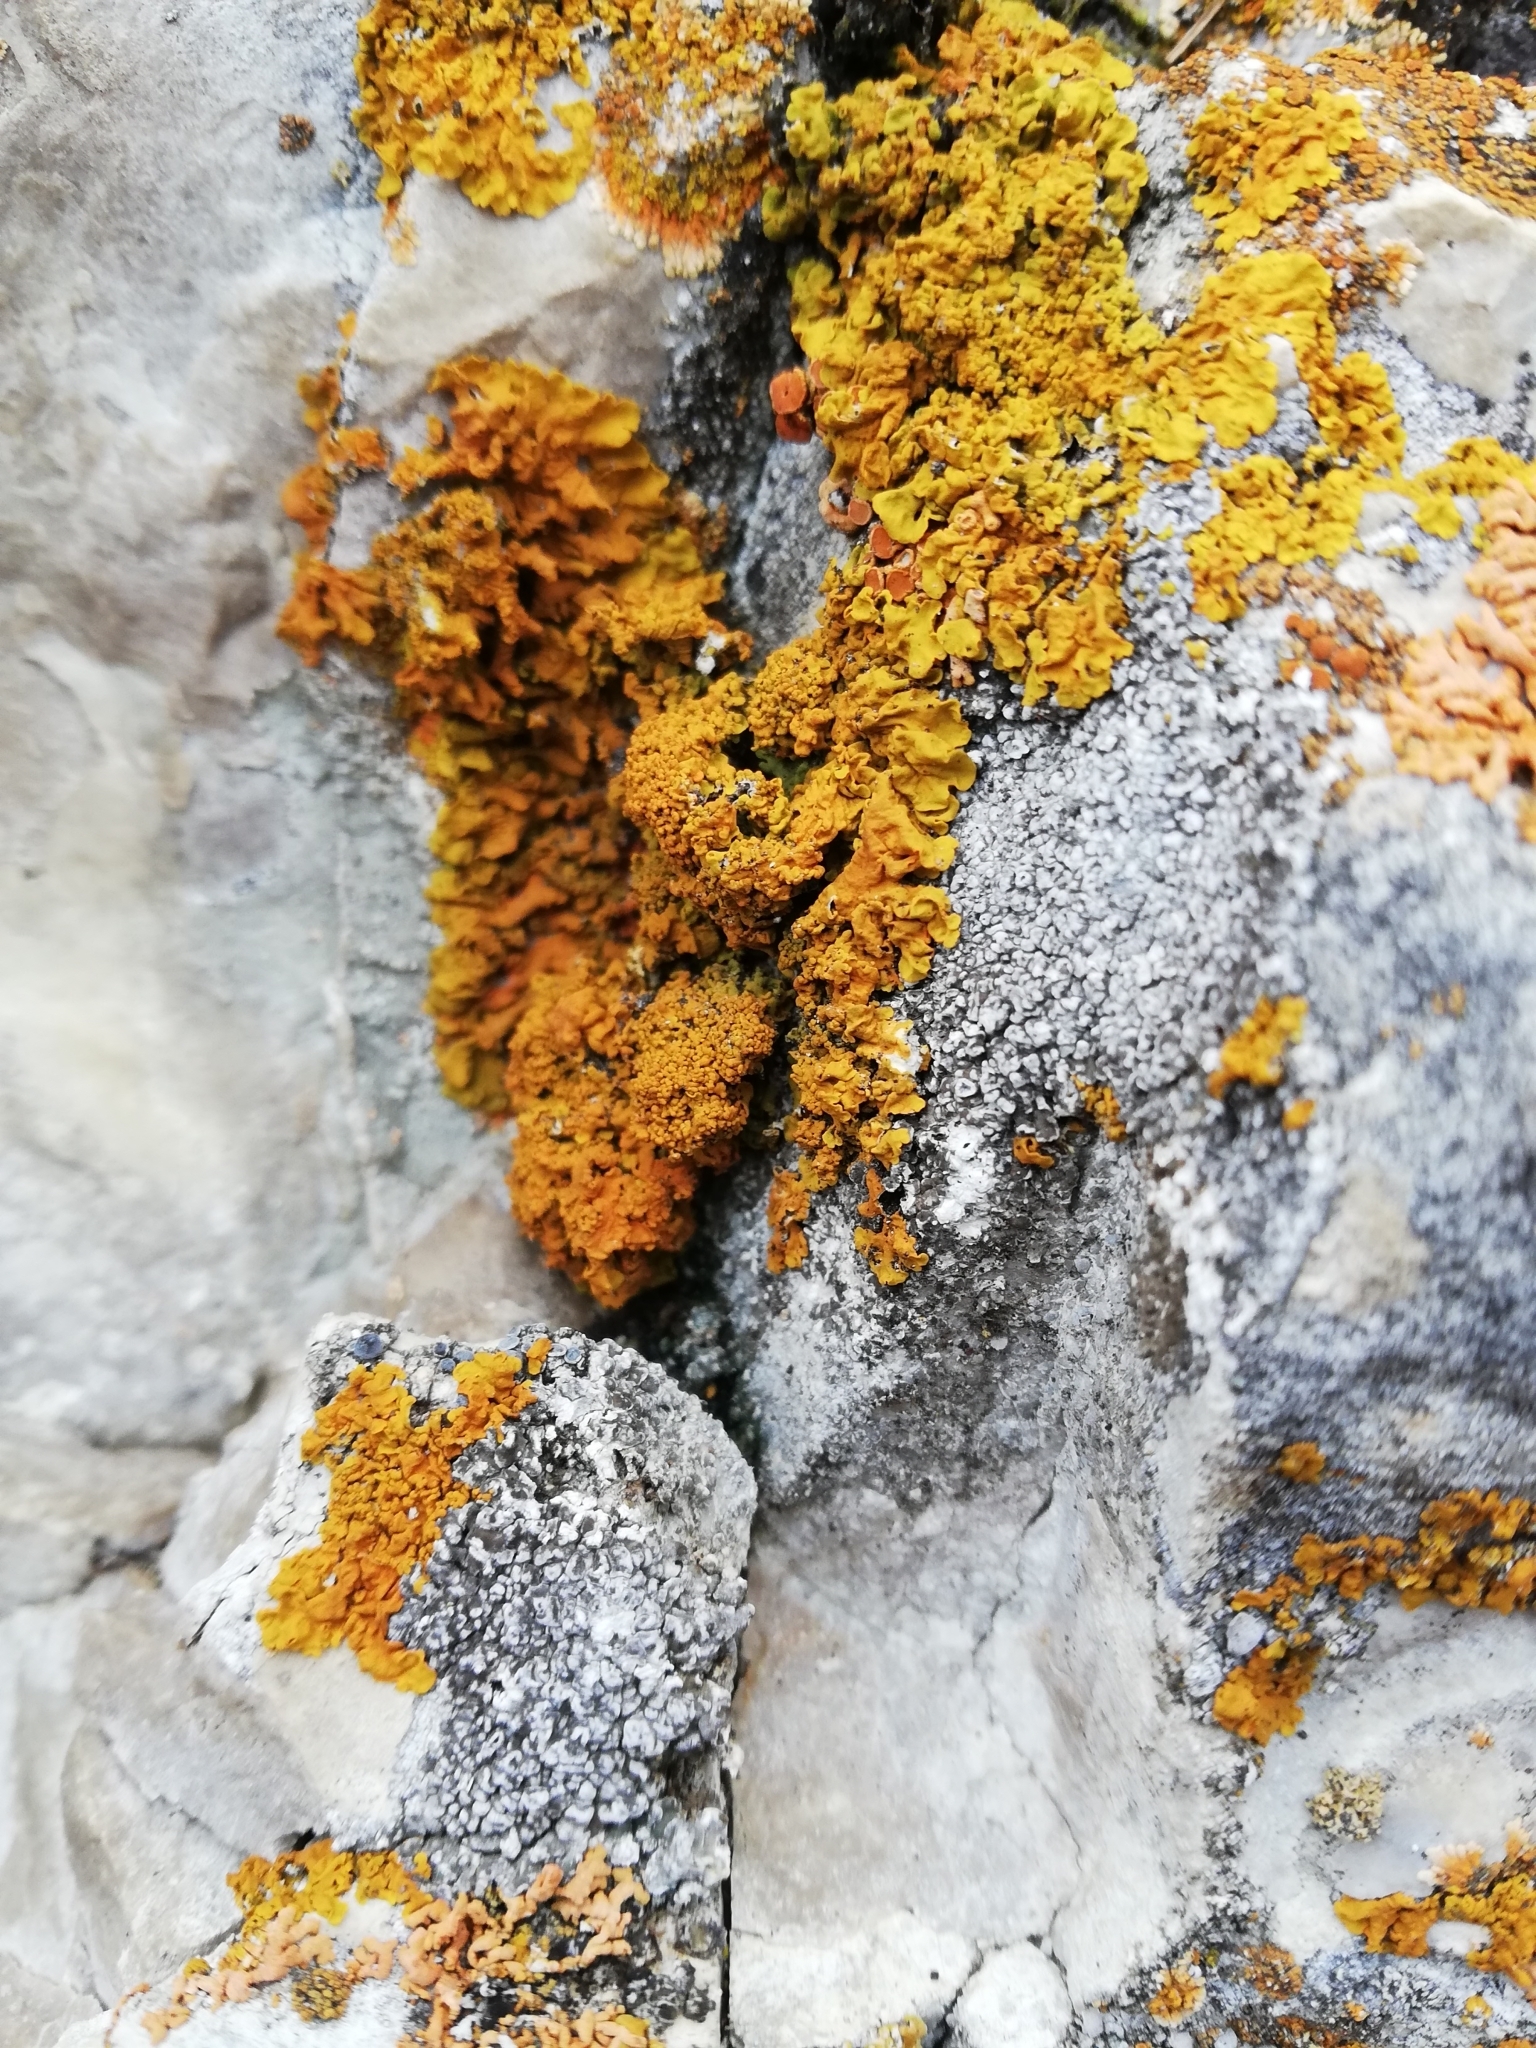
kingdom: Fungi
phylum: Ascomycota
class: Lecanoromycetes
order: Teloschistales
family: Teloschistaceae
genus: Xanthoria
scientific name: Xanthoria calcicola
